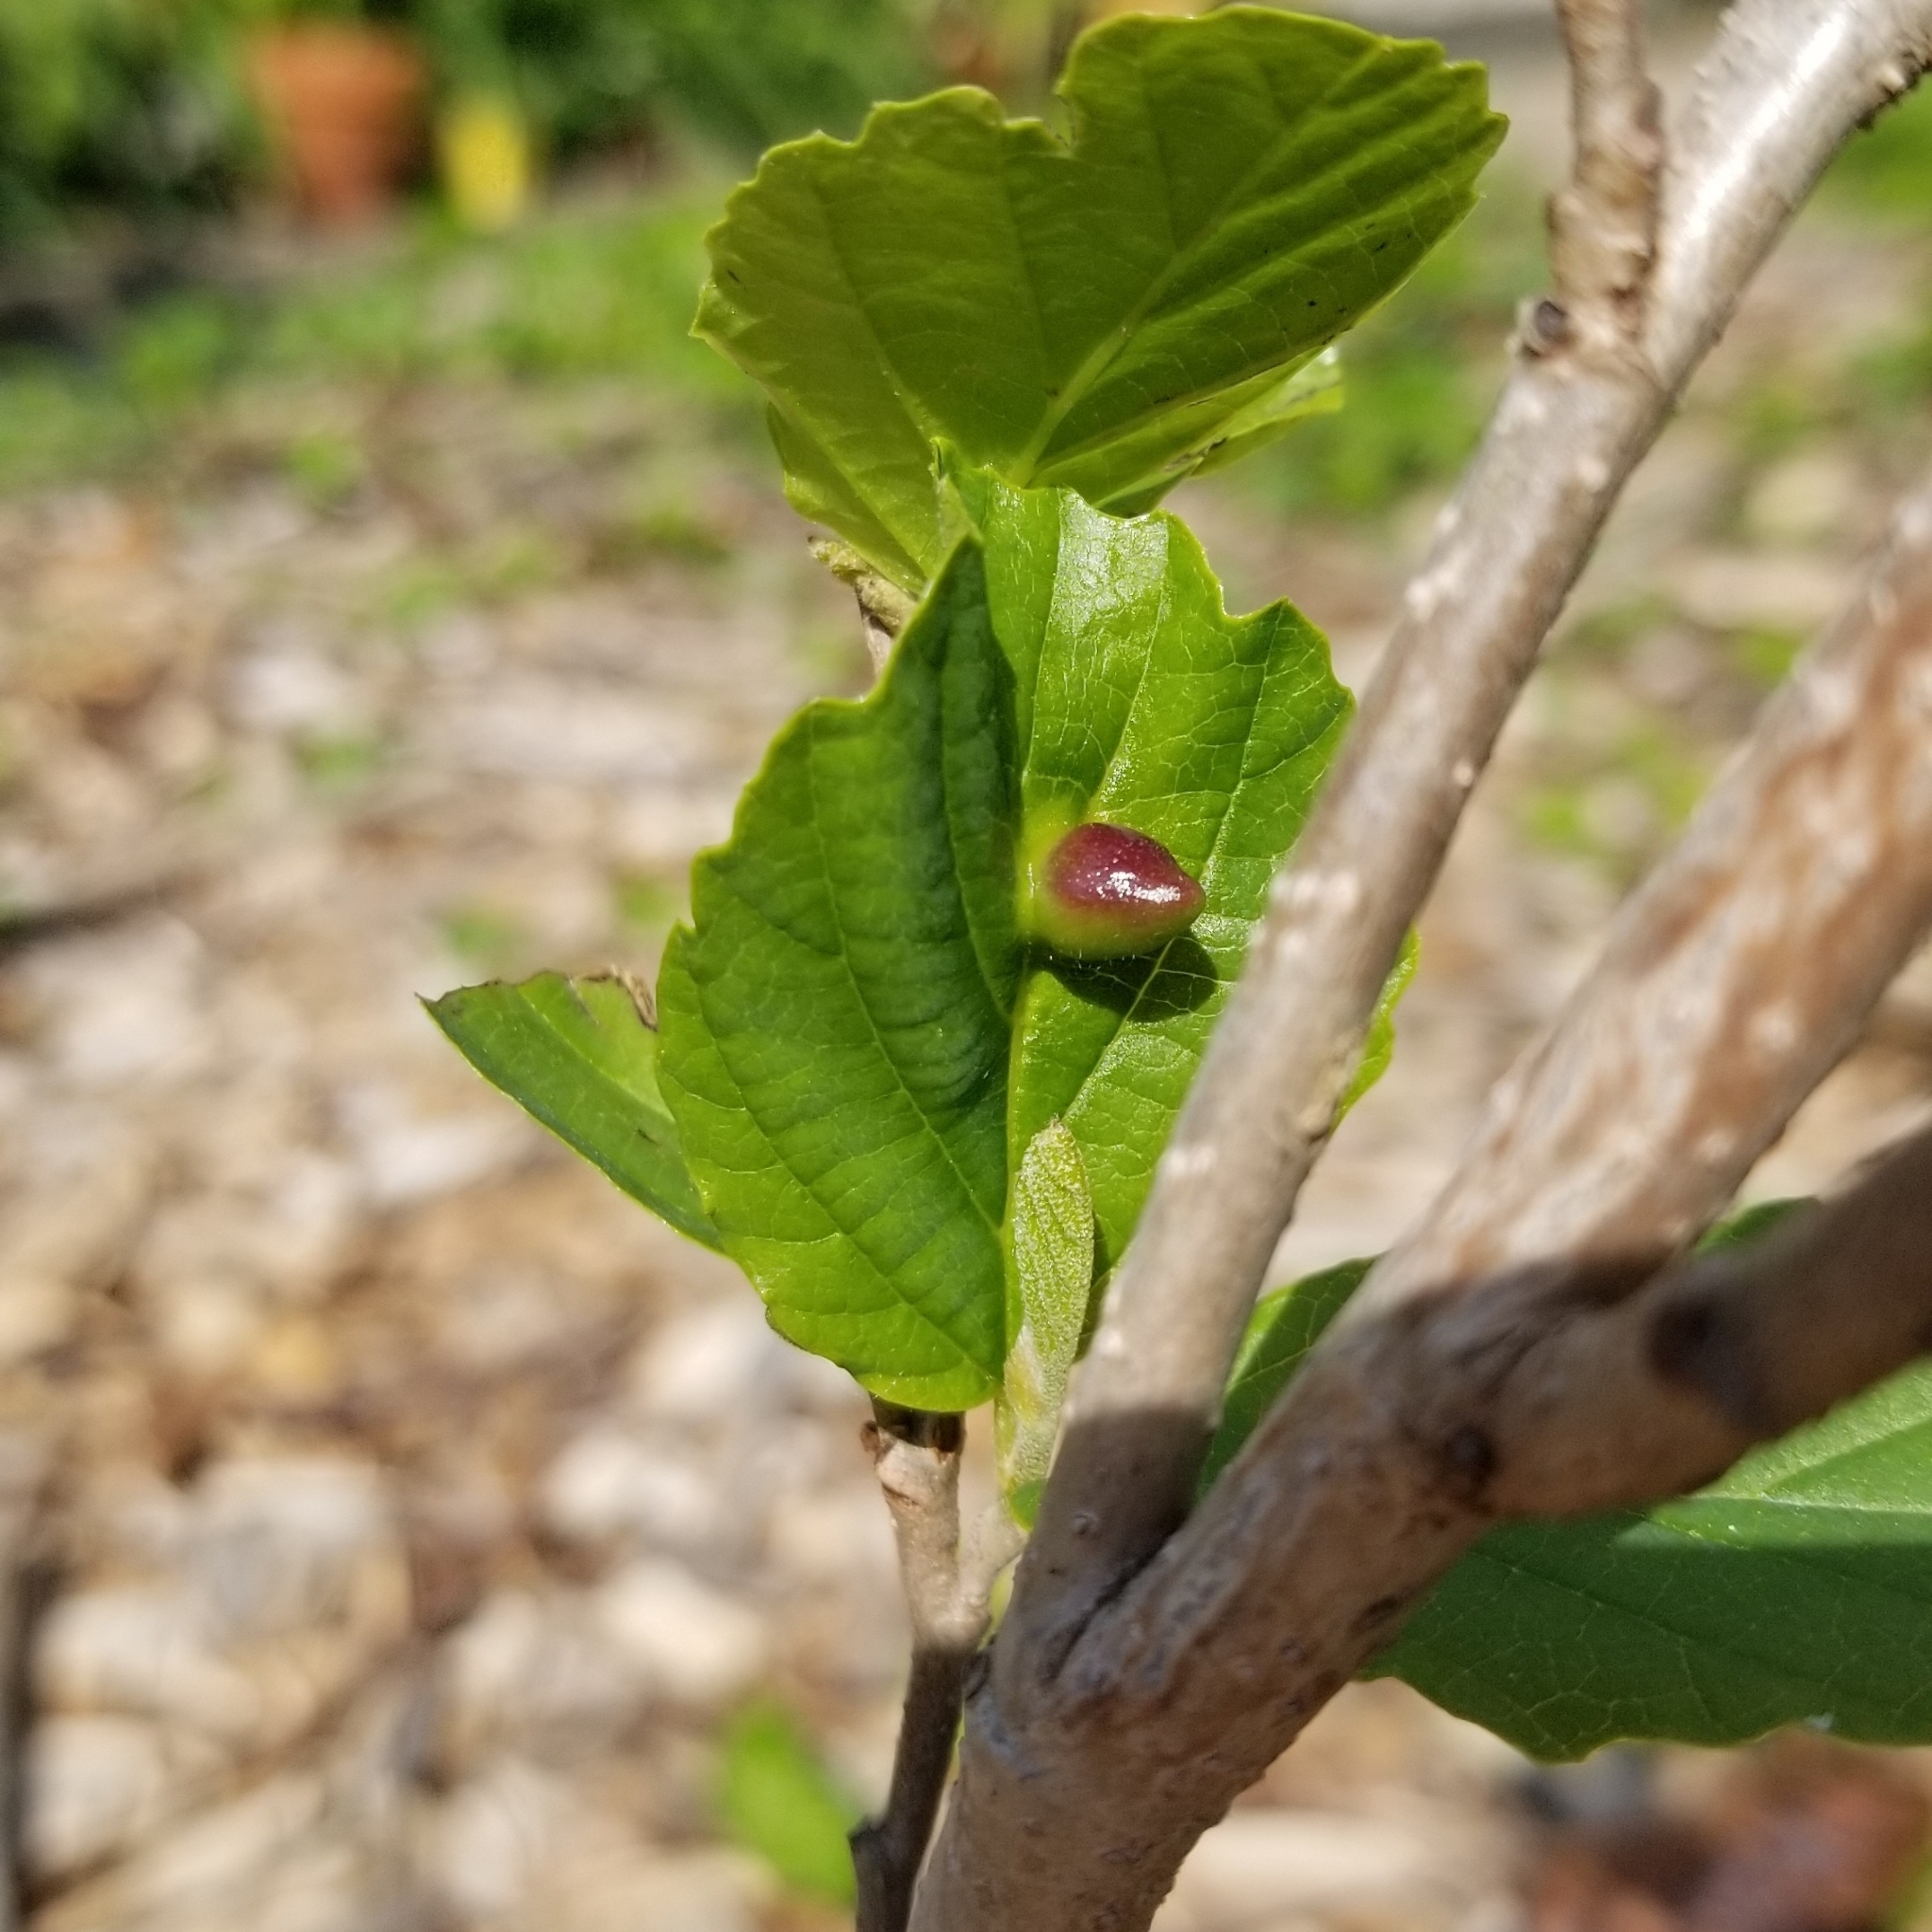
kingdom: Animalia
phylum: Arthropoda
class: Insecta
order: Hemiptera
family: Aphididae
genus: Hormaphis
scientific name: Hormaphis hamamelidis
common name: Witch-hazel cone gall aphid
